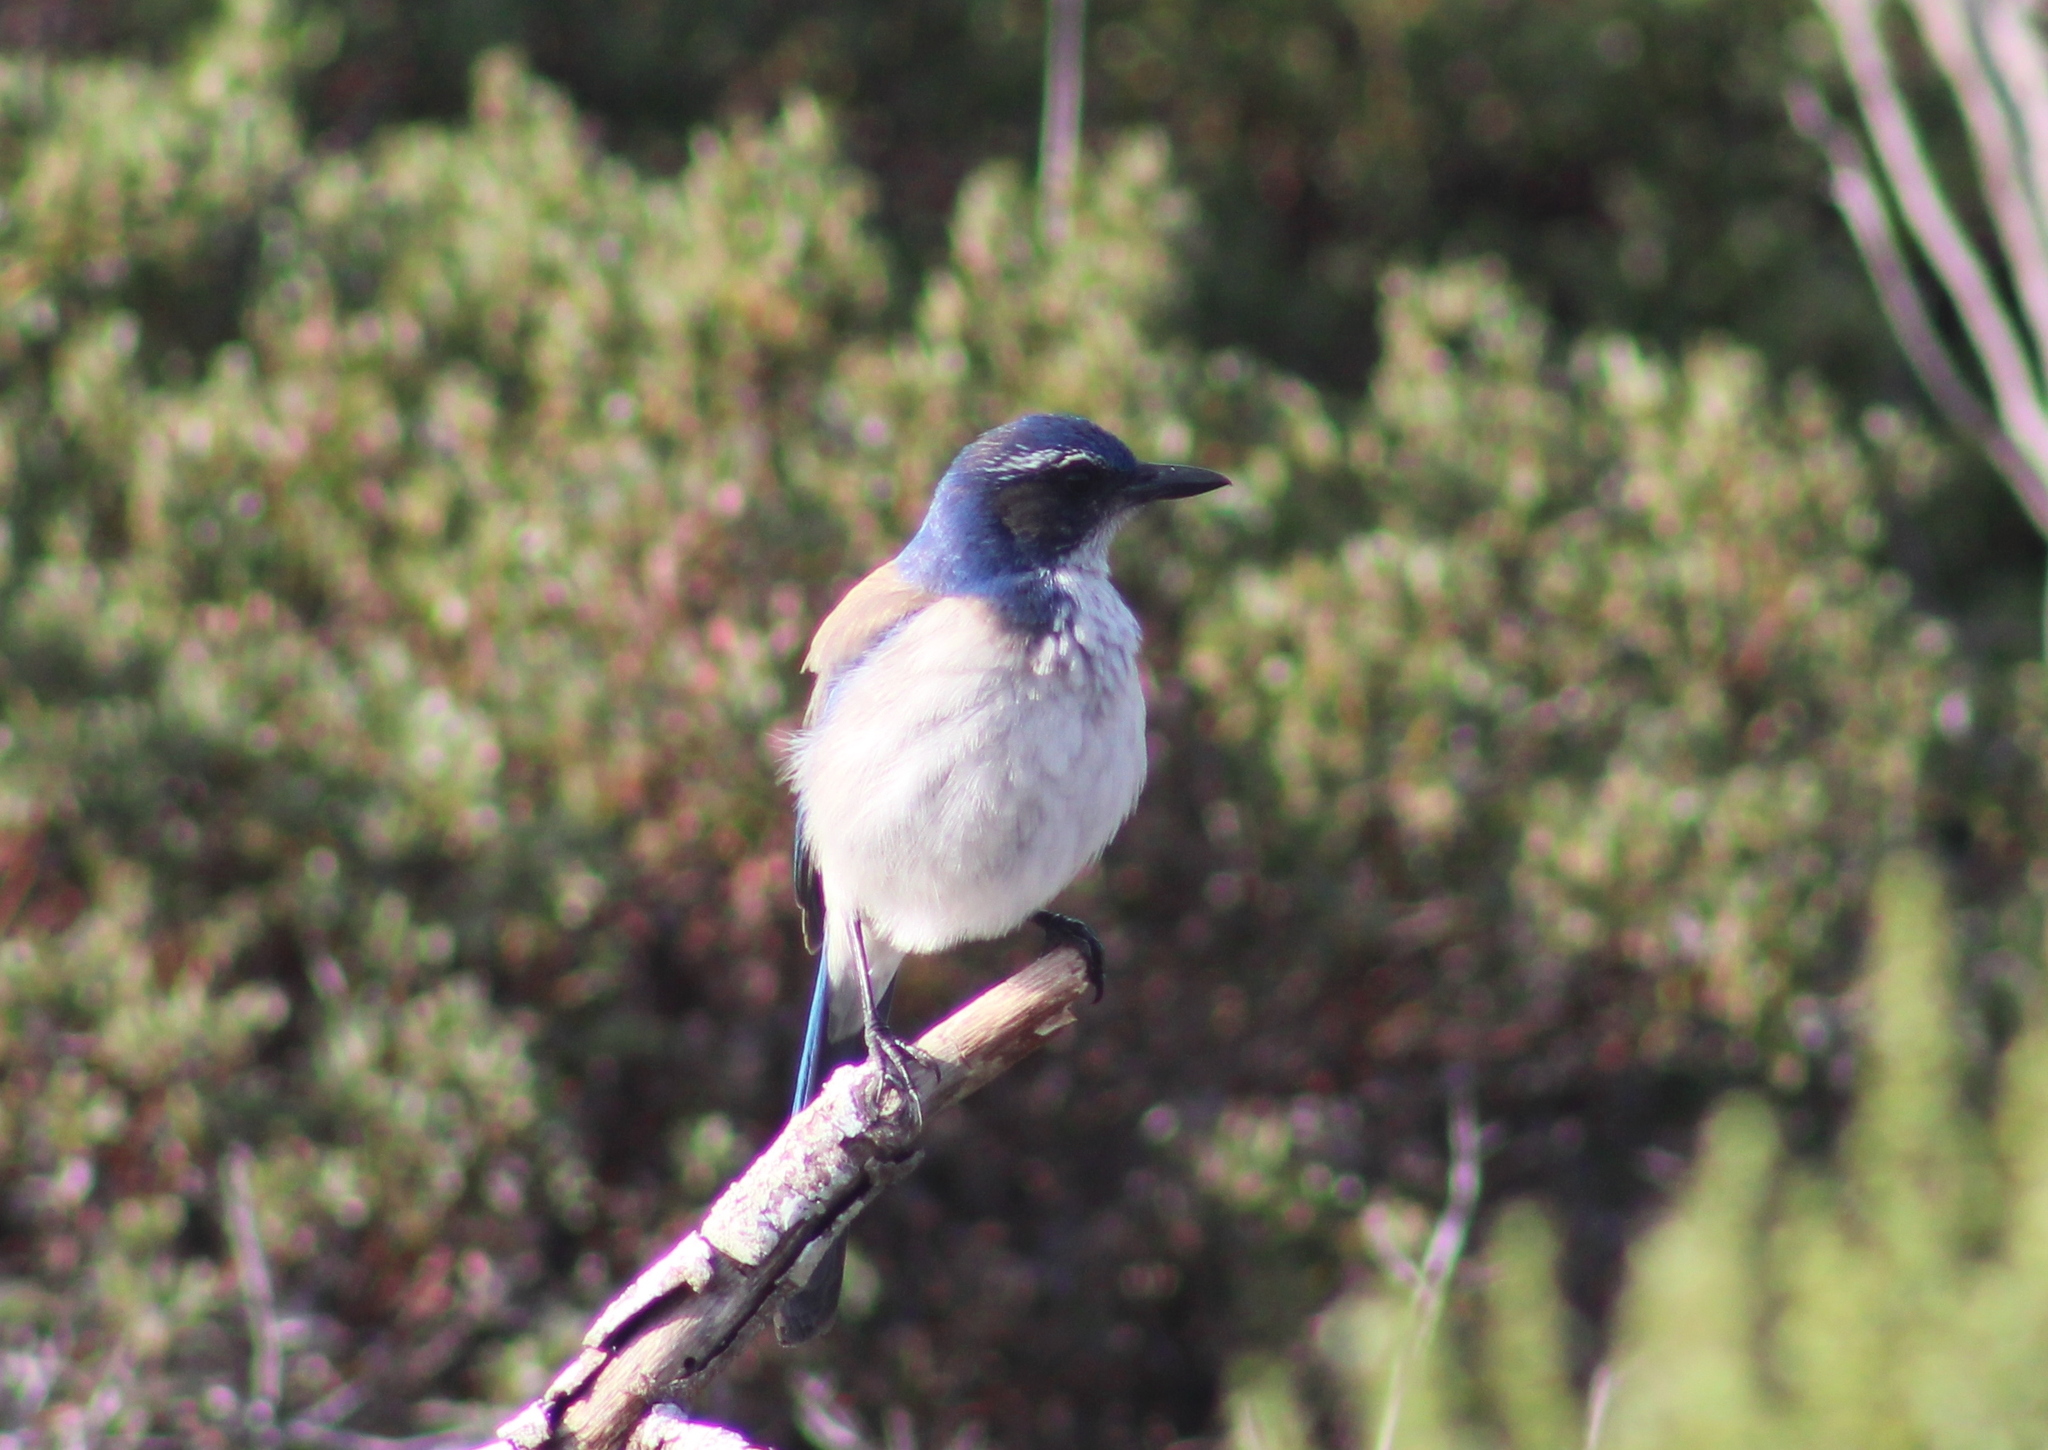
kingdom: Animalia
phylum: Chordata
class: Aves
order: Passeriformes
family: Corvidae
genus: Aphelocoma
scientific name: Aphelocoma californica
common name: California scrub-jay
